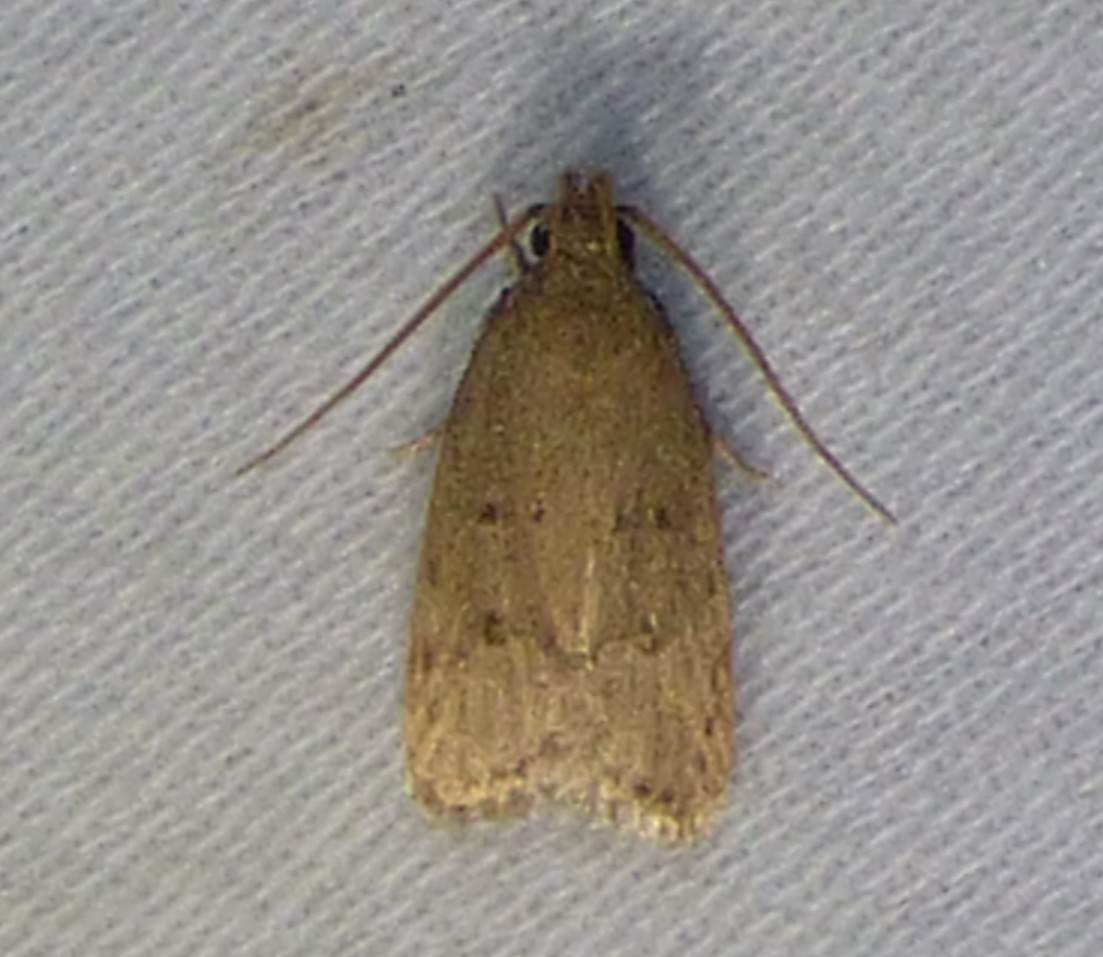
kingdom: Animalia
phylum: Arthropoda
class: Insecta
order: Lepidoptera
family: Autostichidae
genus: Autosticha
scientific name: Autosticha kyotensis
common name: Kyoto moth
